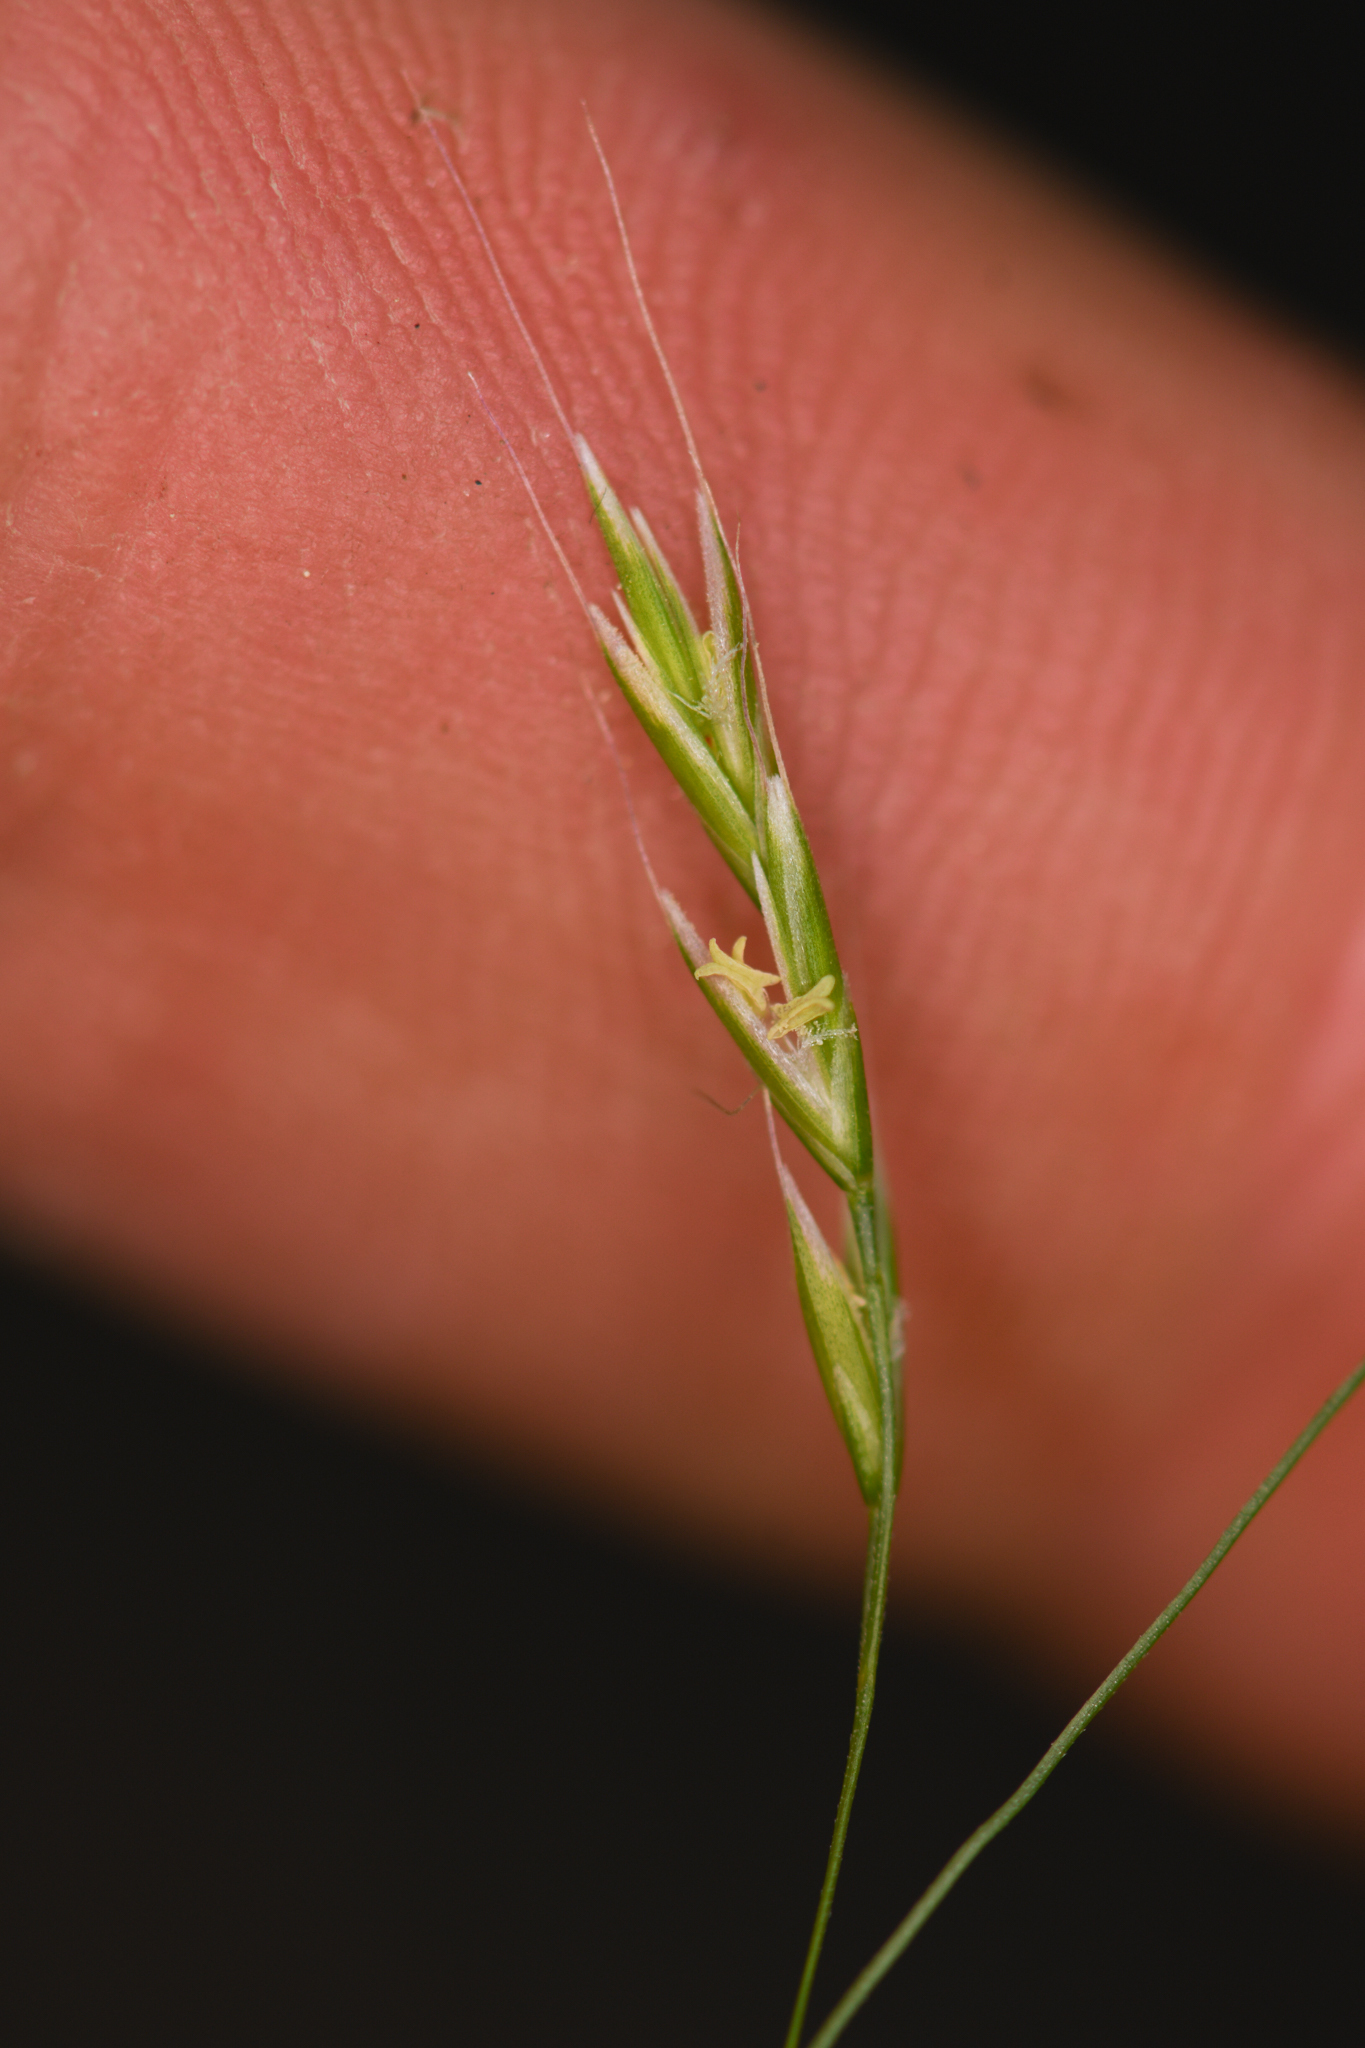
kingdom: Plantae
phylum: Tracheophyta
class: Liliopsida
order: Poales
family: Poaceae
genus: Festuca
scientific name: Festuca occidentalis
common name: Western fescue
